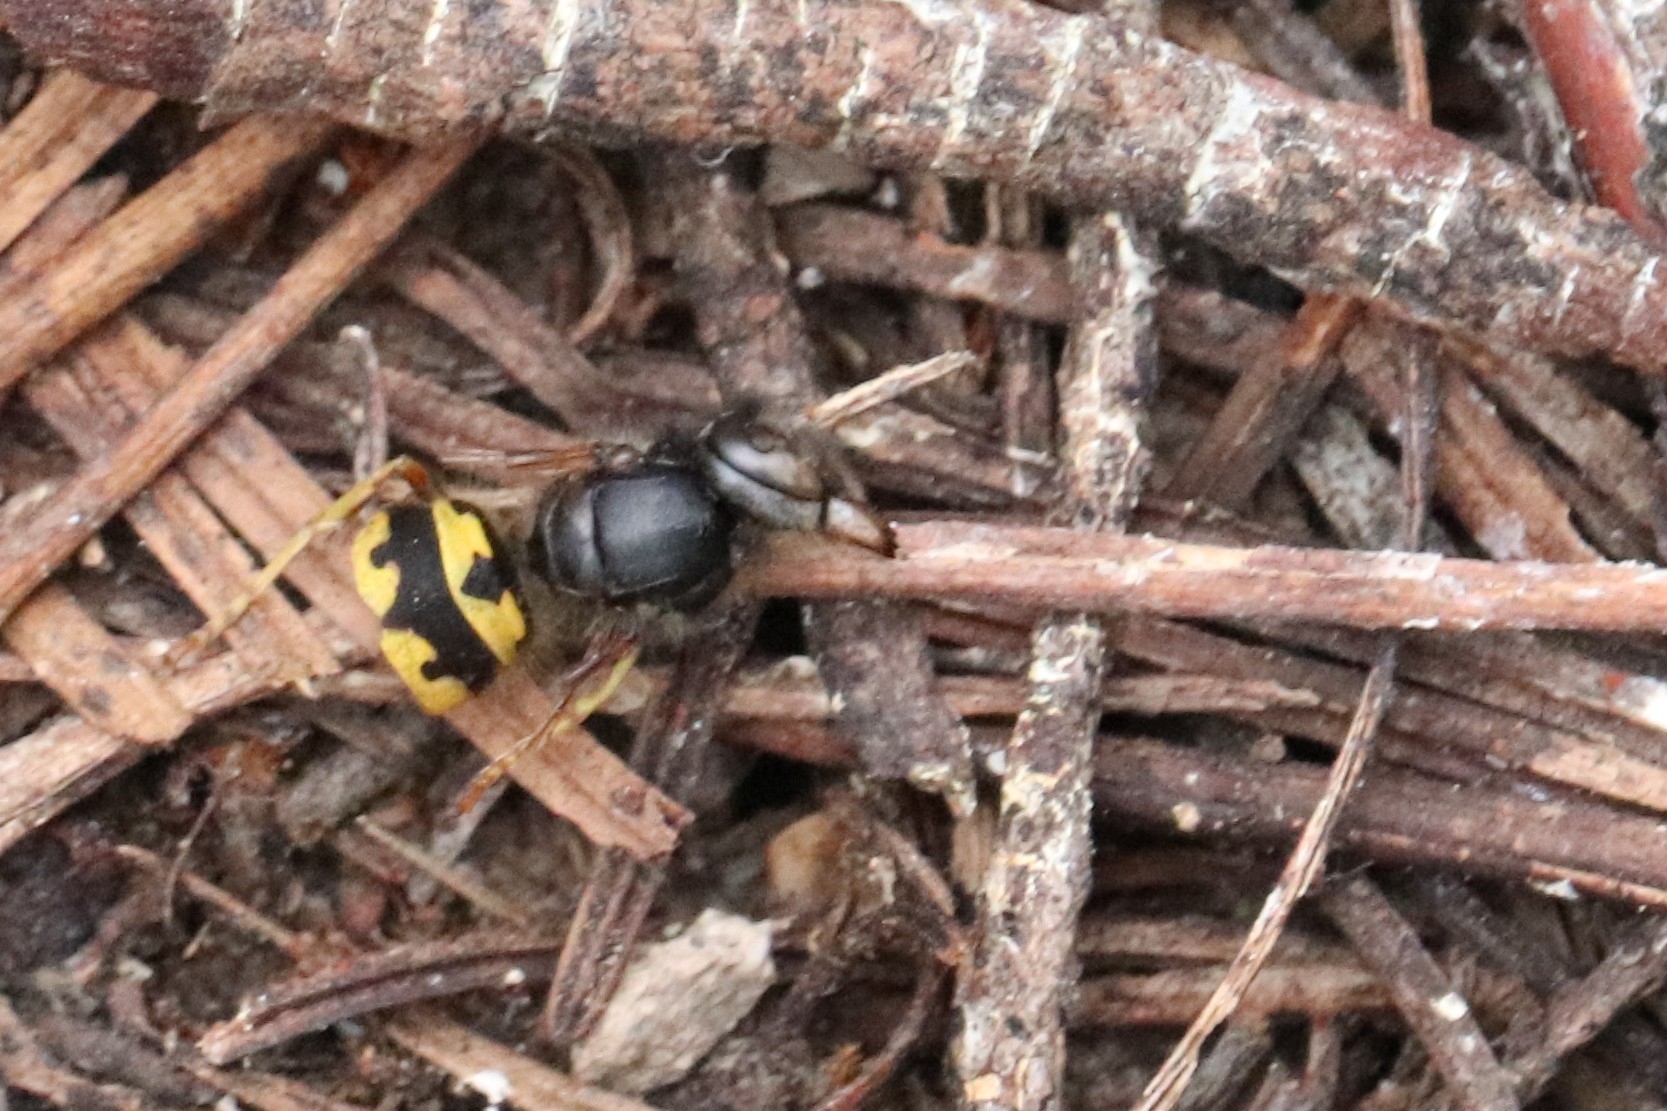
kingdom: Animalia
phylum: Arthropoda
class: Insecta
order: Hymenoptera
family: Vespidae
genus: Vespula
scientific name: Vespula pensylvanica
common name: Western yellowjacket
